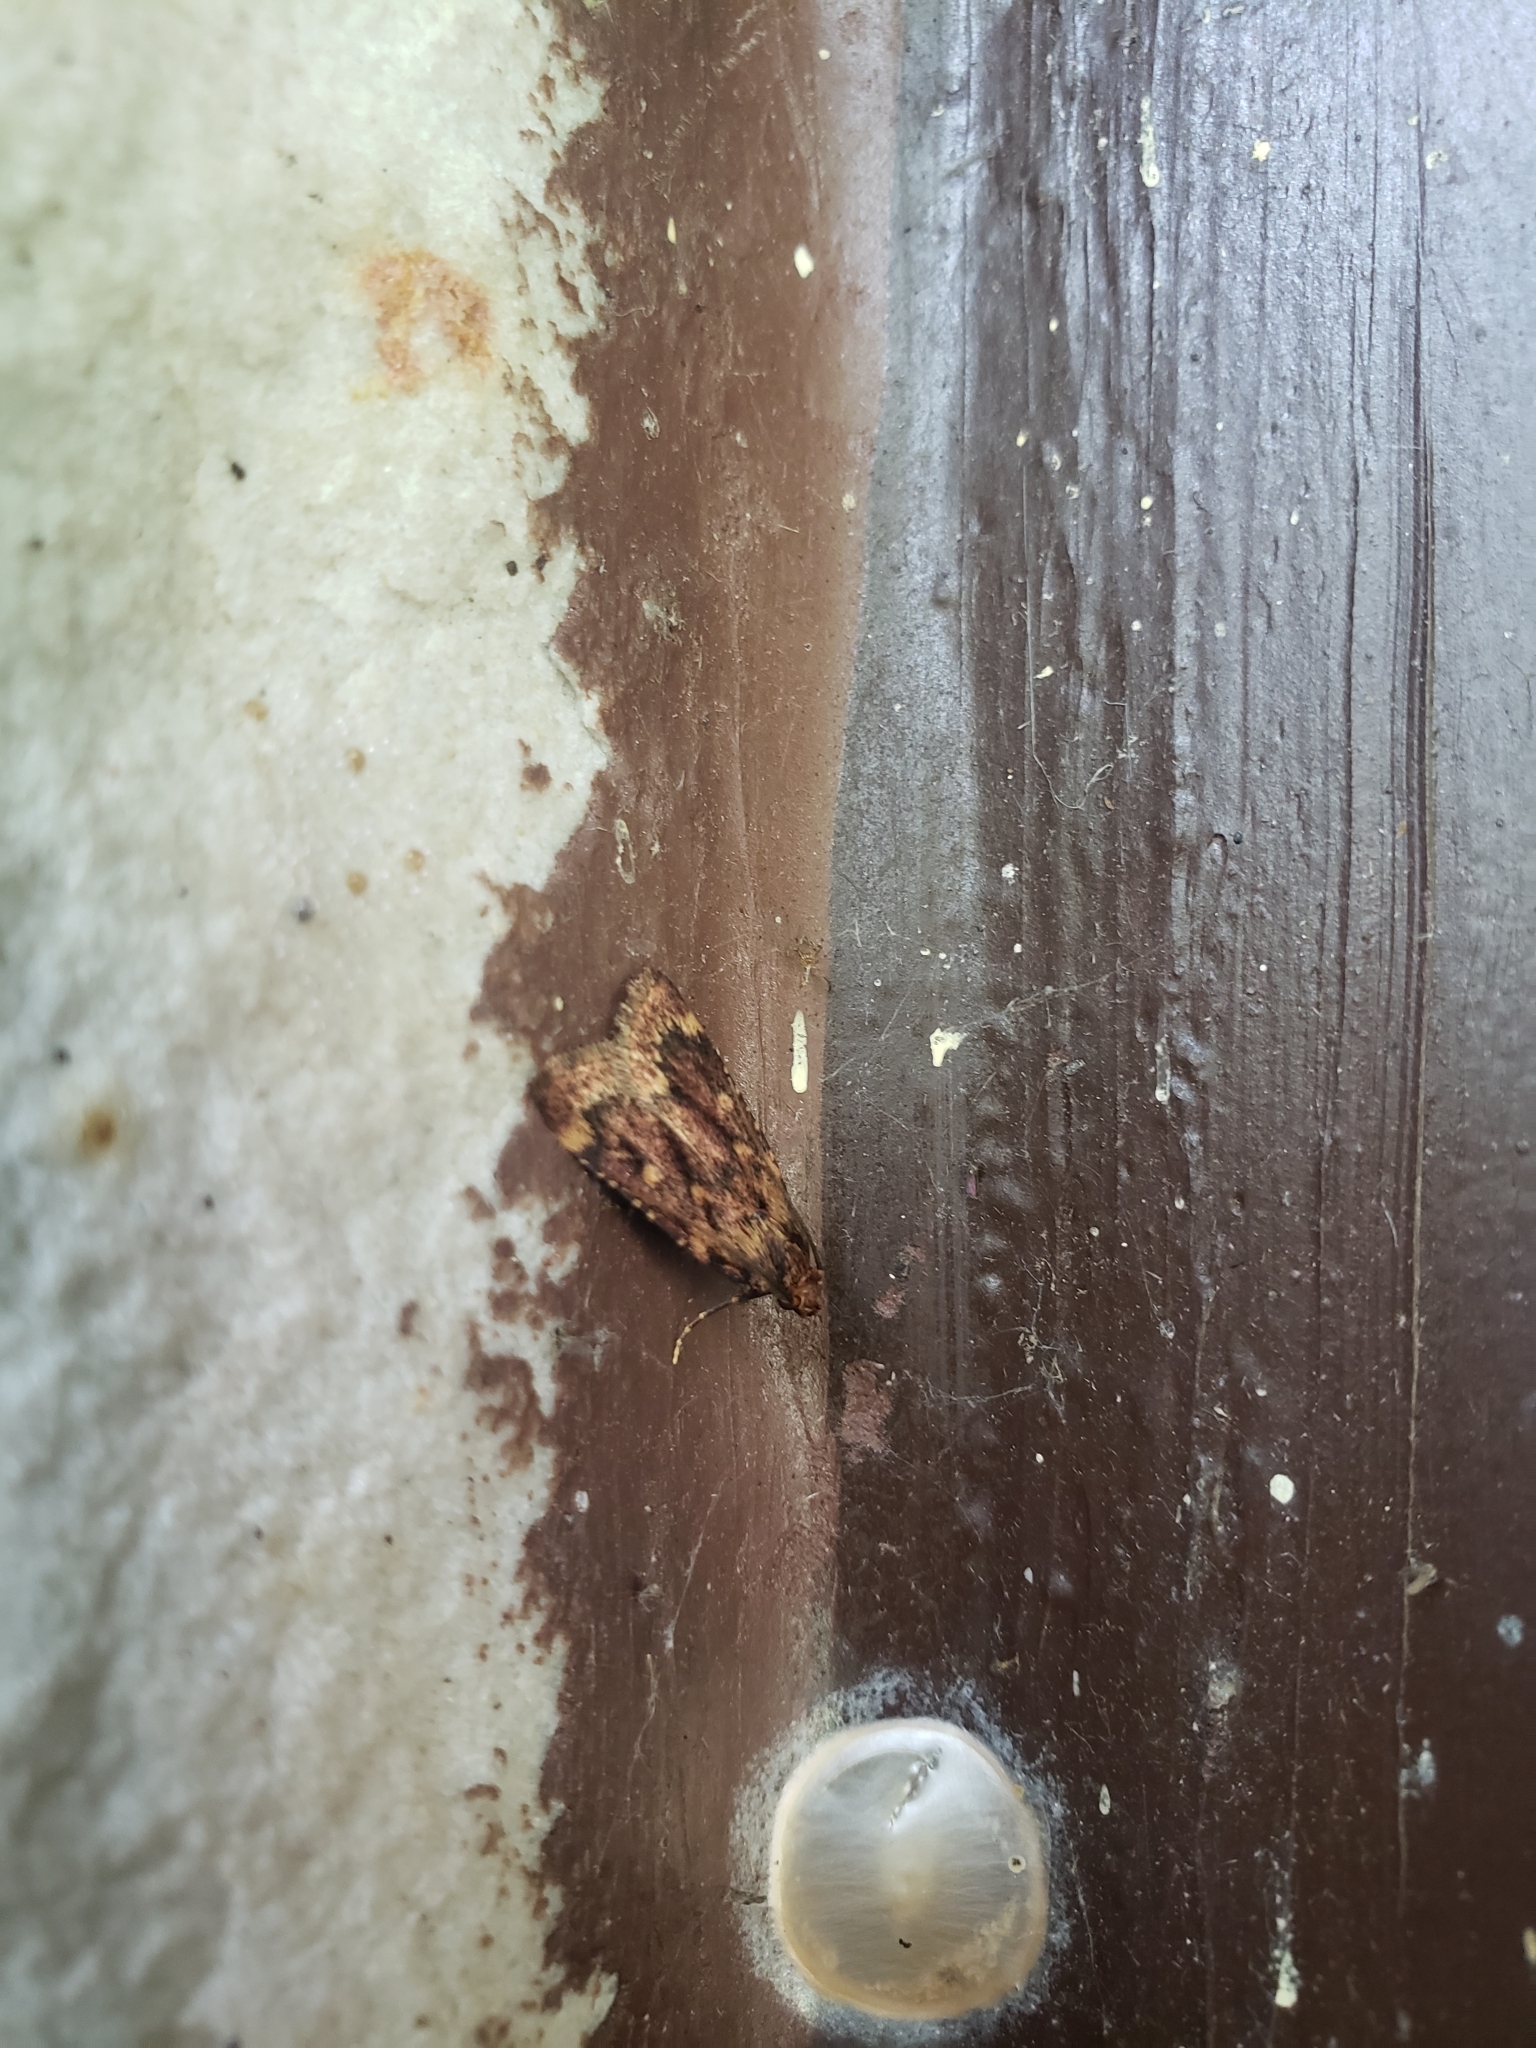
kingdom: Animalia
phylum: Arthropoda
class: Insecta
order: Lepidoptera
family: Pyralidae
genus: Aglossa
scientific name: Aglossa cuprina
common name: Grease moth
